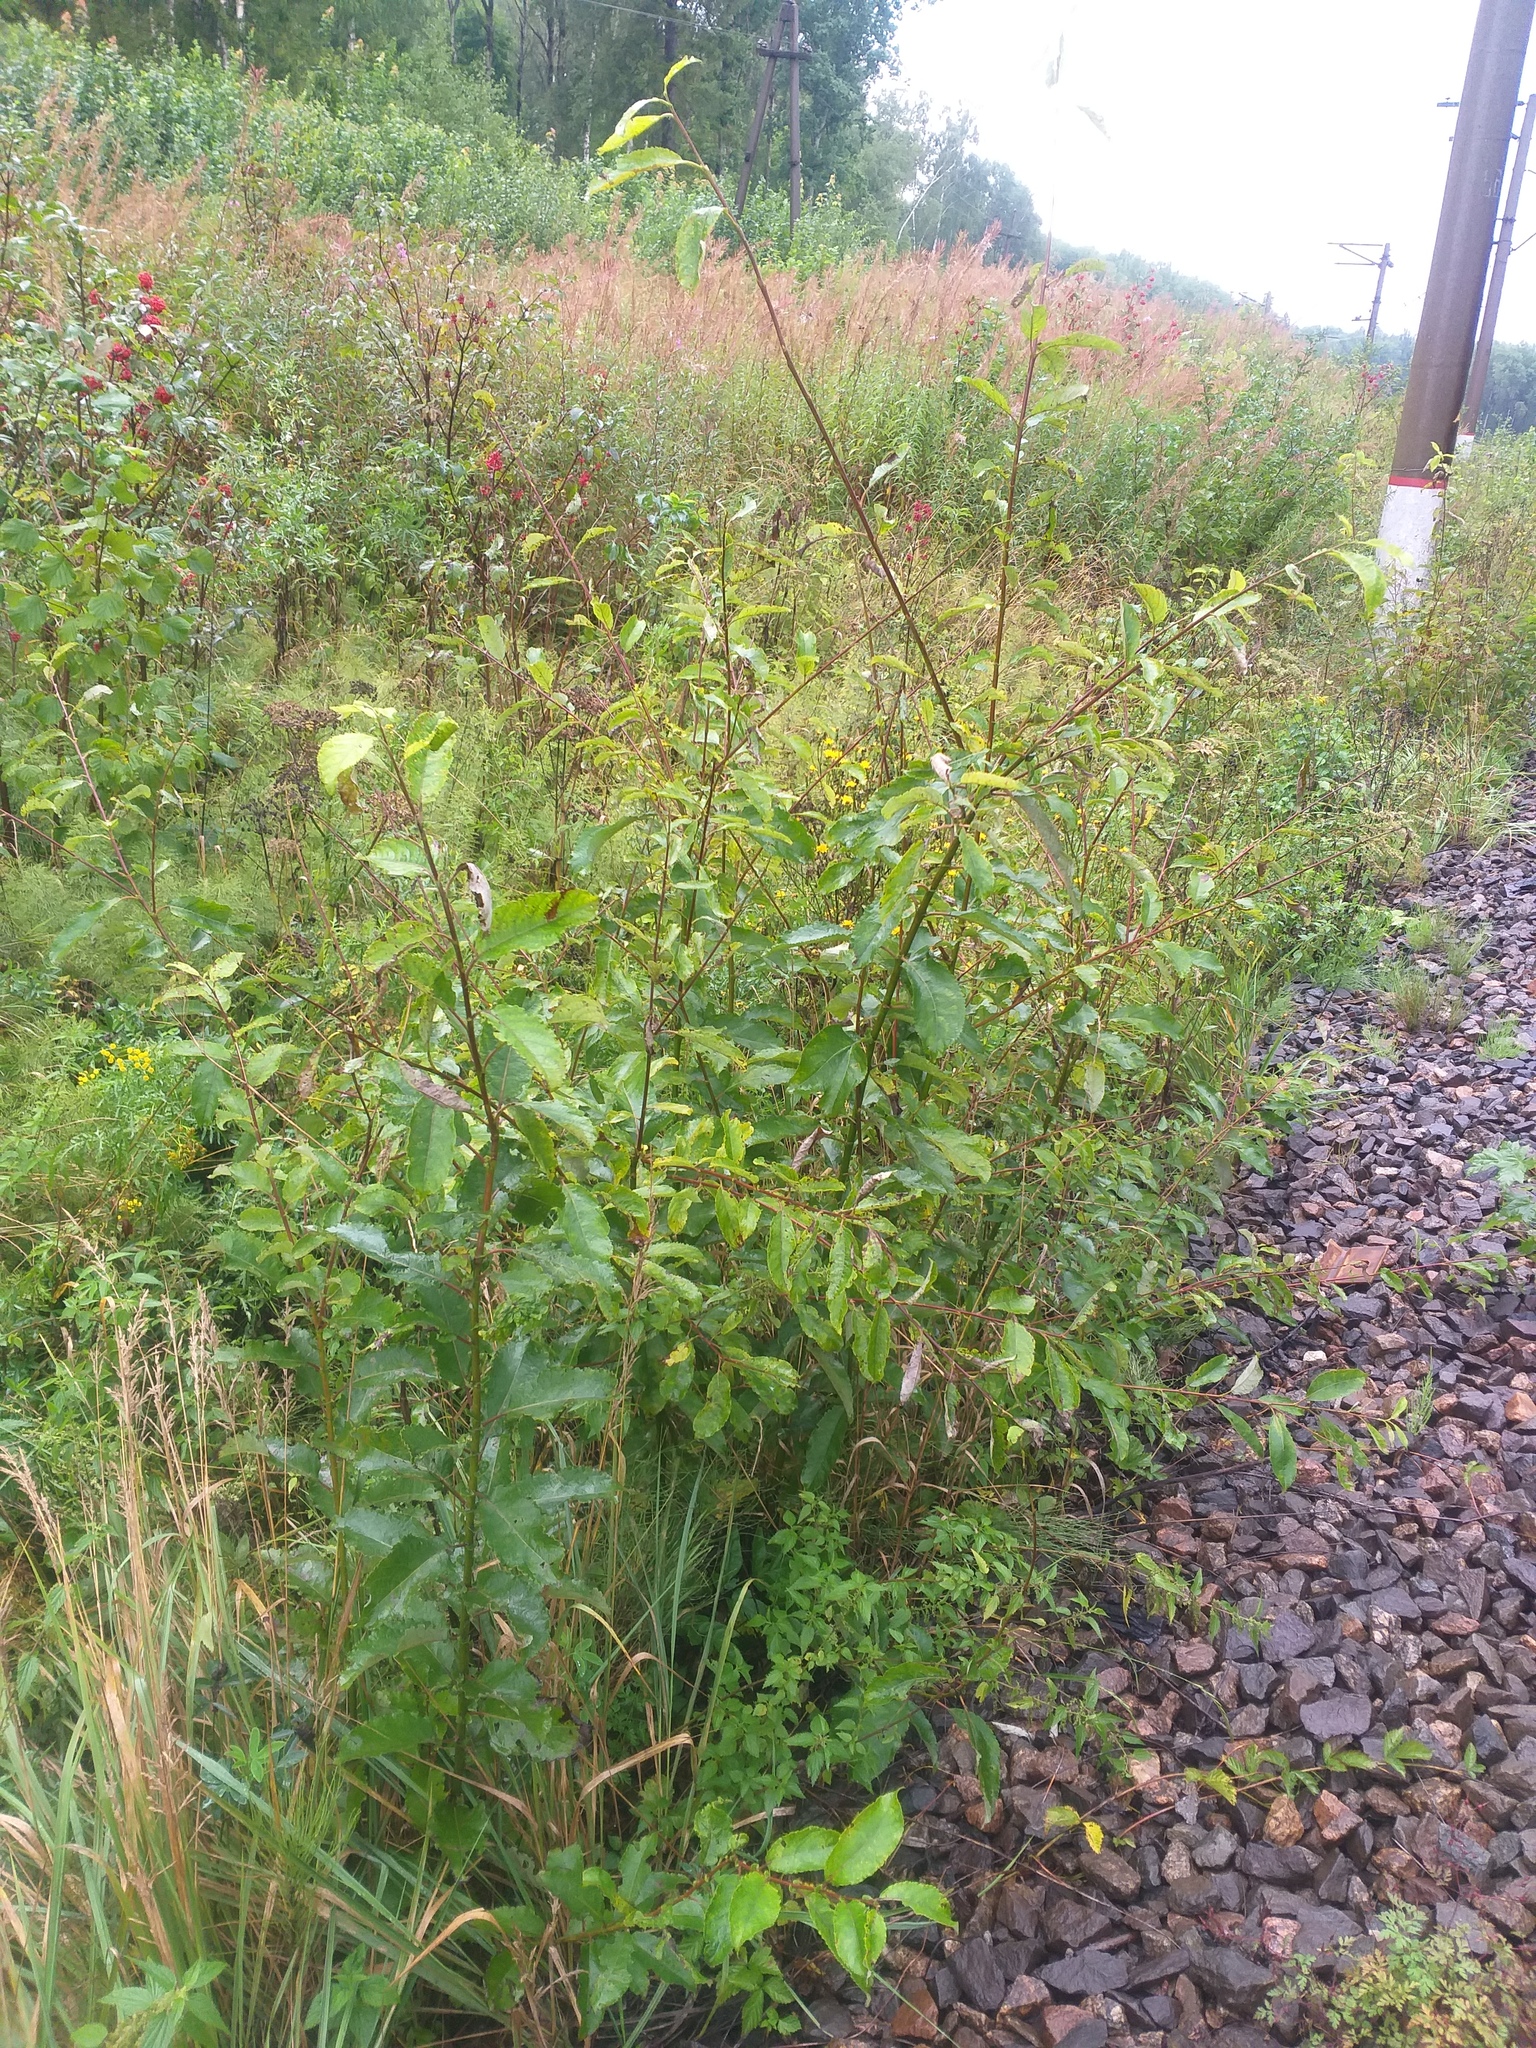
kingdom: Plantae
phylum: Tracheophyta
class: Magnoliopsida
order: Malpighiales
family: Salicaceae
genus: Salix
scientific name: Salix caprea
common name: Goat willow
